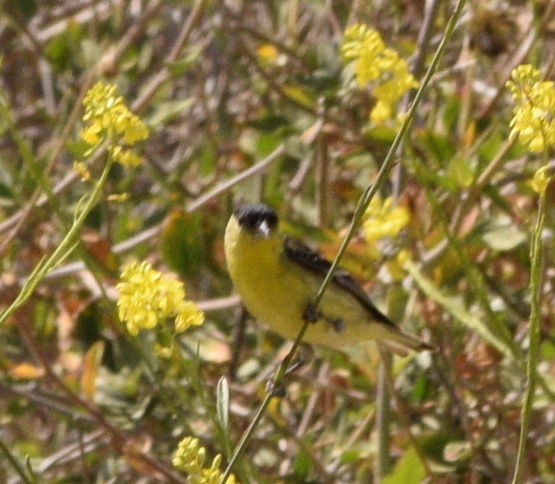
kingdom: Animalia
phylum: Chordata
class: Aves
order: Passeriformes
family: Fringillidae
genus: Spinus
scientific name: Spinus psaltria
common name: Lesser goldfinch
